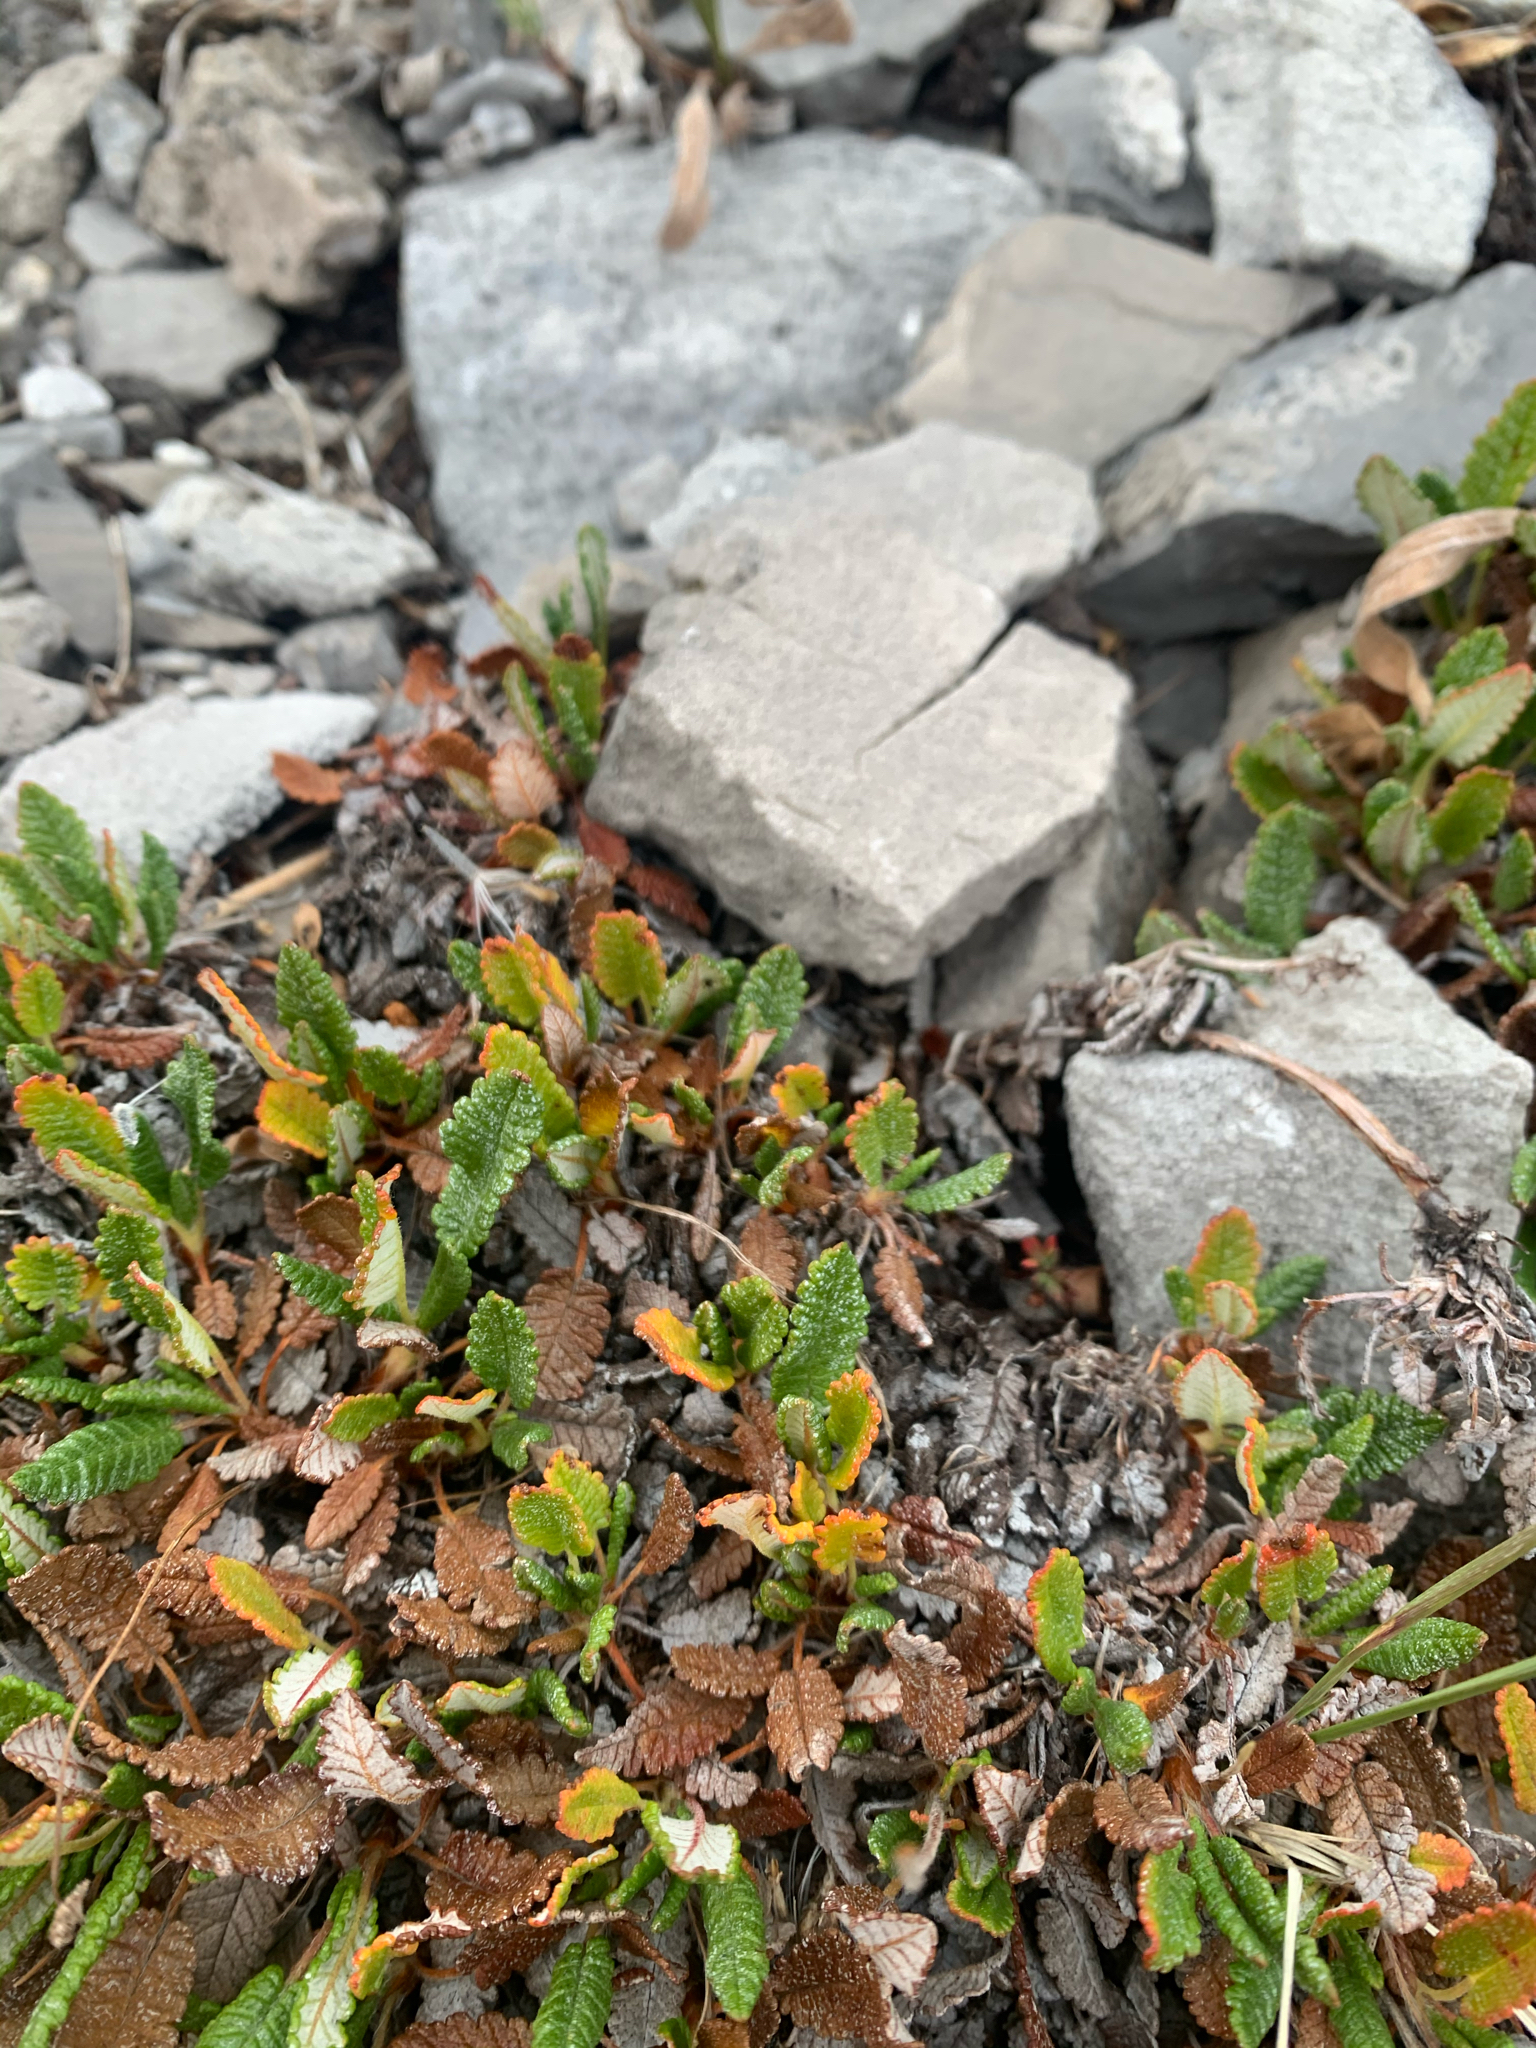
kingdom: Plantae
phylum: Tracheophyta
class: Magnoliopsida
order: Rosales
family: Rosaceae
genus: Dryas
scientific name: Dryas octopetala
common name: Eight-petal mountain-avens
